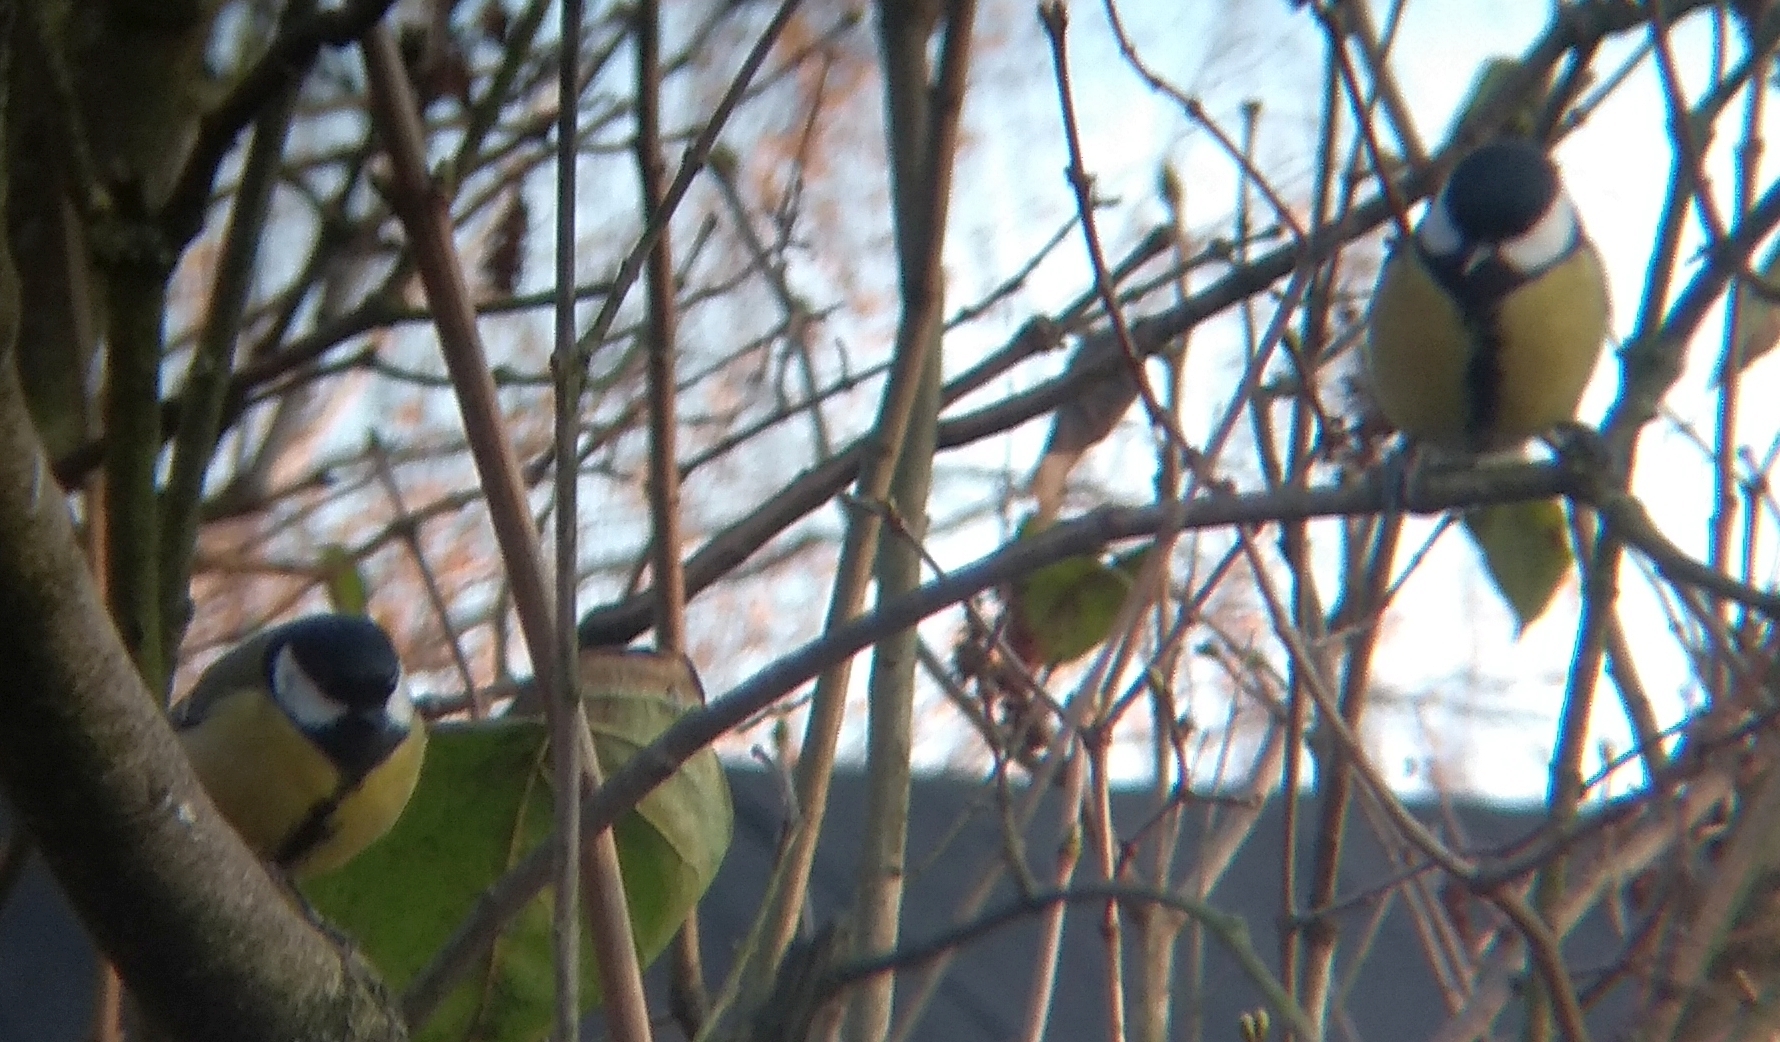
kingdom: Animalia
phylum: Chordata
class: Aves
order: Passeriformes
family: Paridae
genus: Parus
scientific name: Parus major
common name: Great tit
